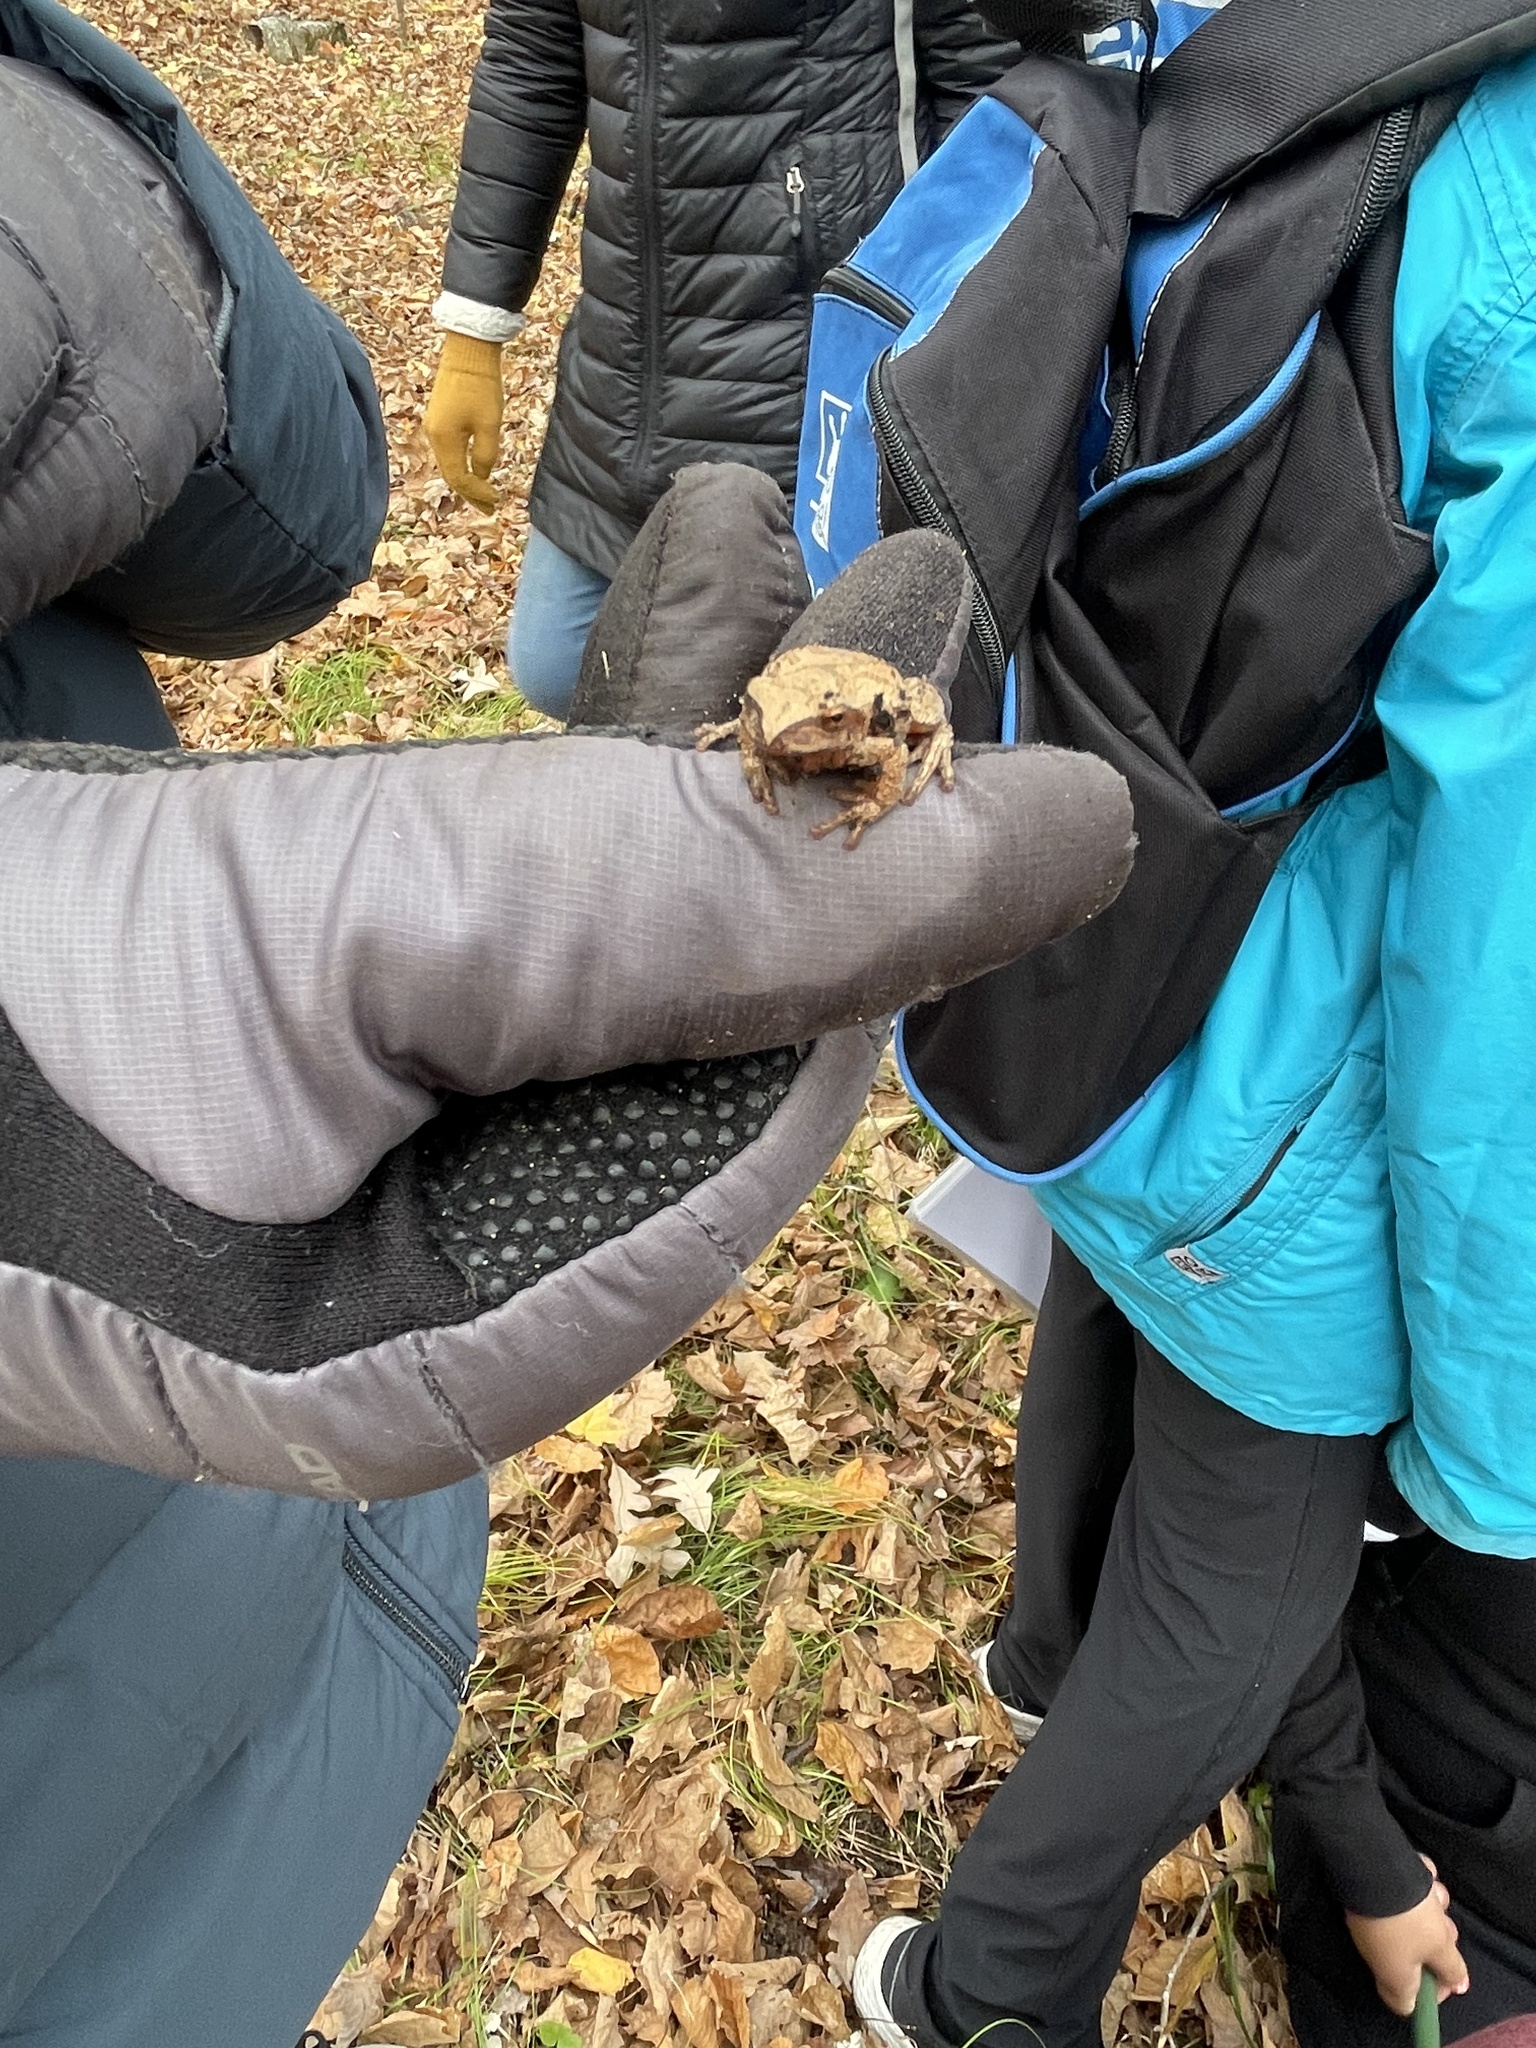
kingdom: Animalia
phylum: Chordata
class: Amphibia
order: Anura
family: Hylidae
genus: Pseudacris
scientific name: Pseudacris crucifer
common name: Spring peeper
